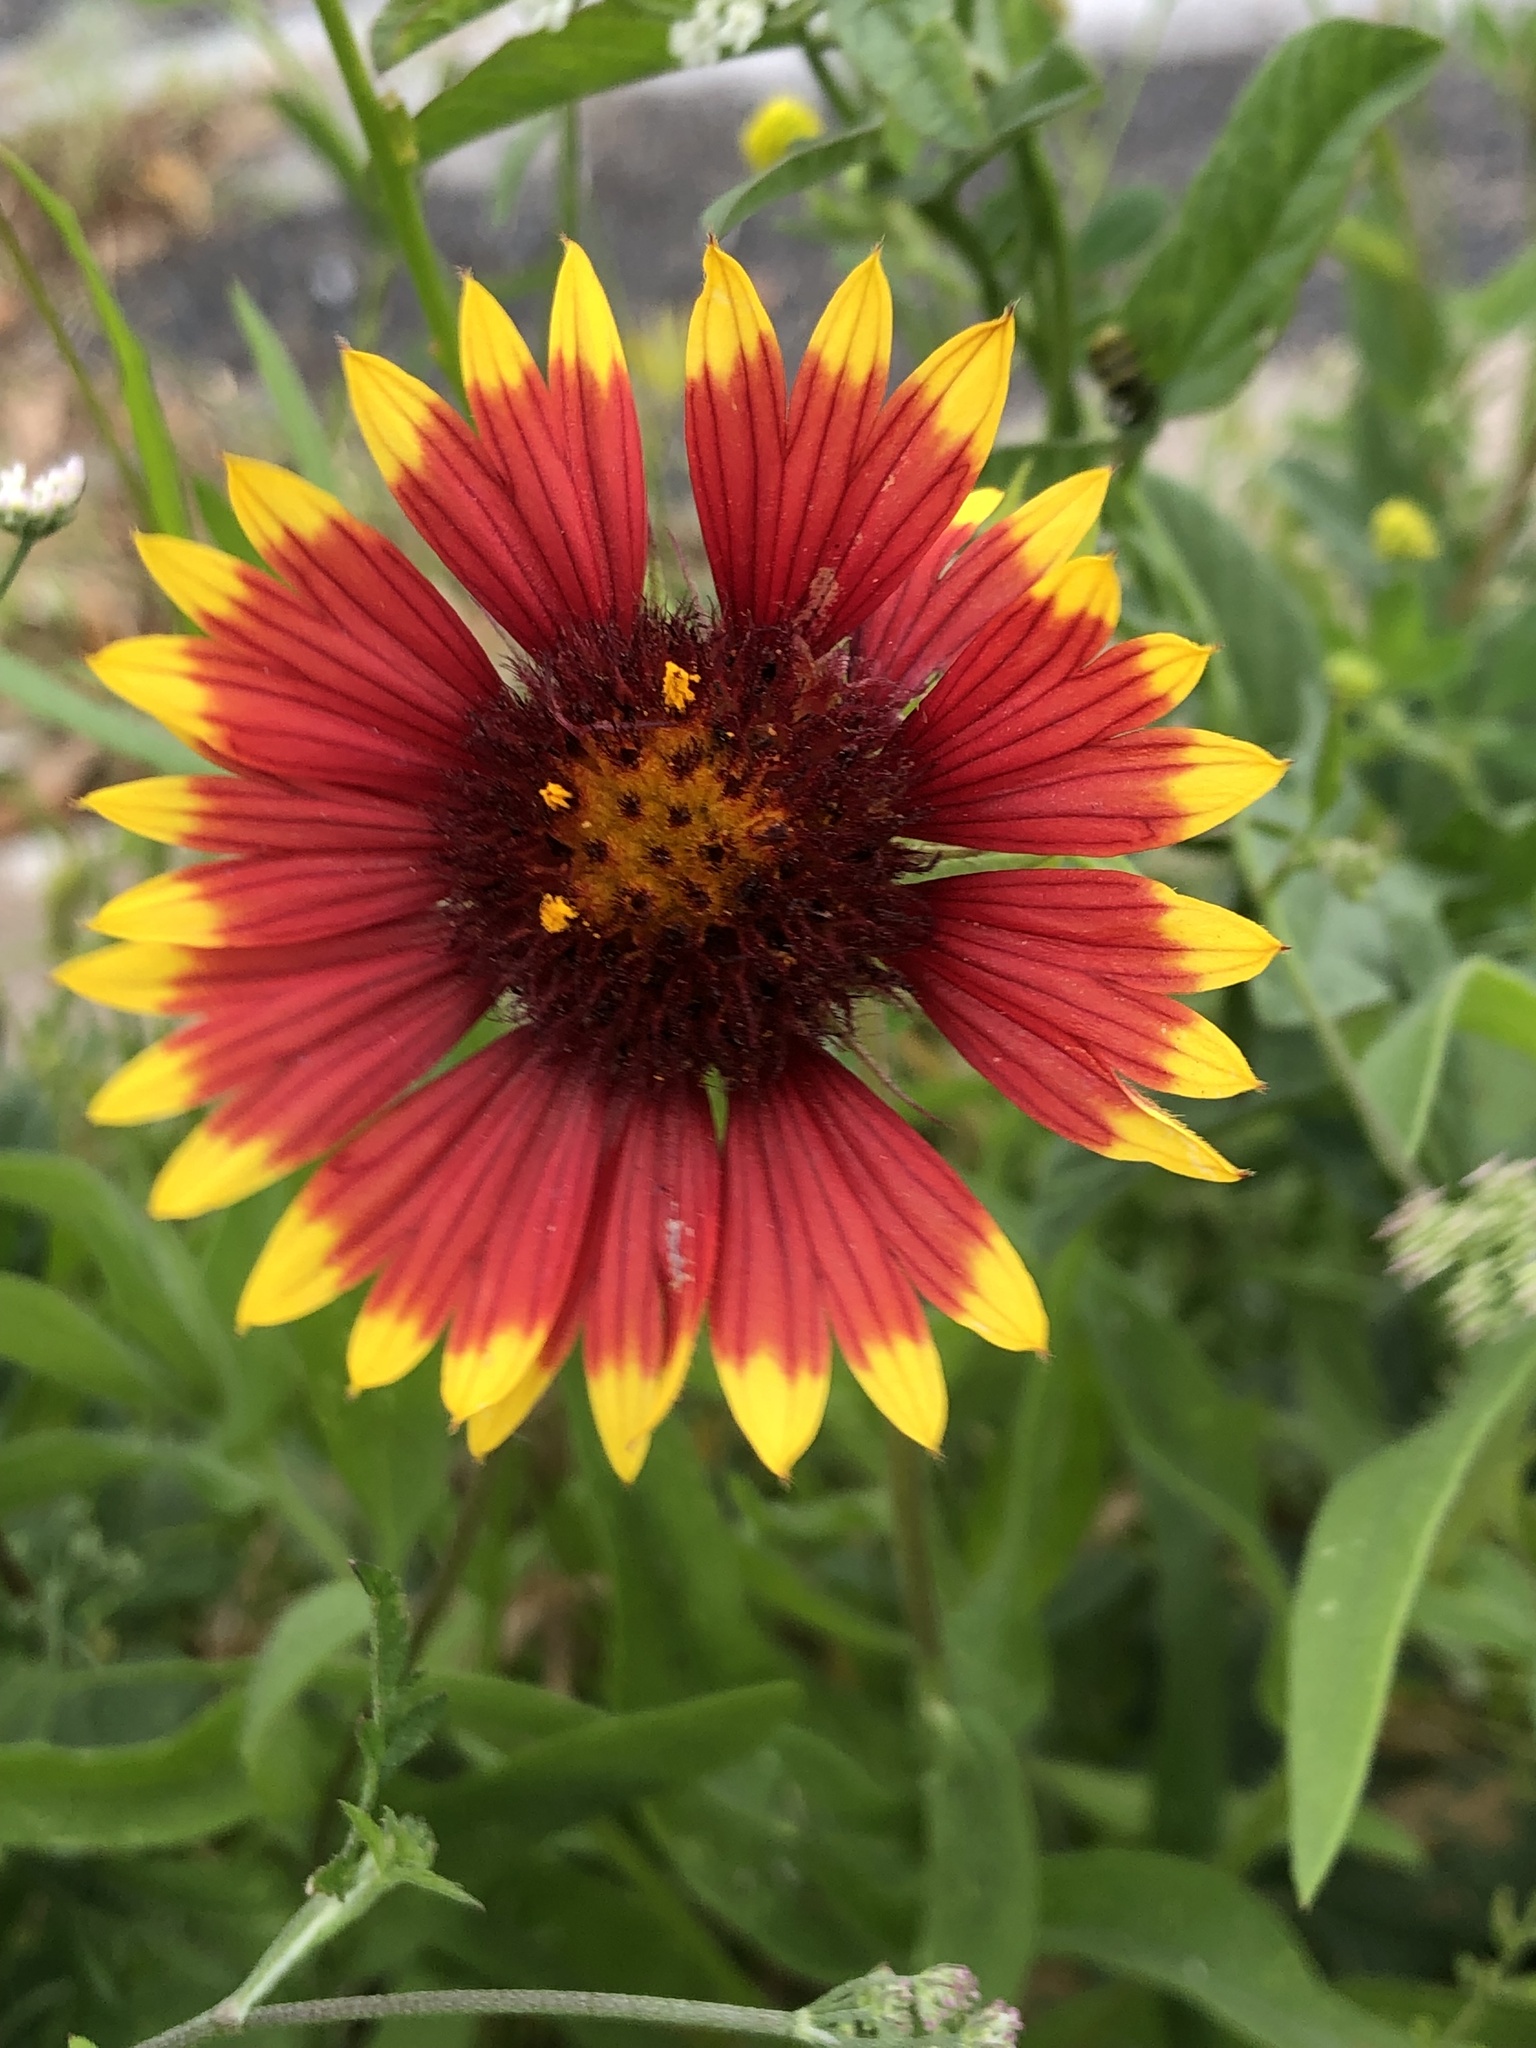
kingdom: Plantae
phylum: Tracheophyta
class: Magnoliopsida
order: Asterales
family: Asteraceae
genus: Gaillardia
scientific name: Gaillardia pulchella
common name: Firewheel
